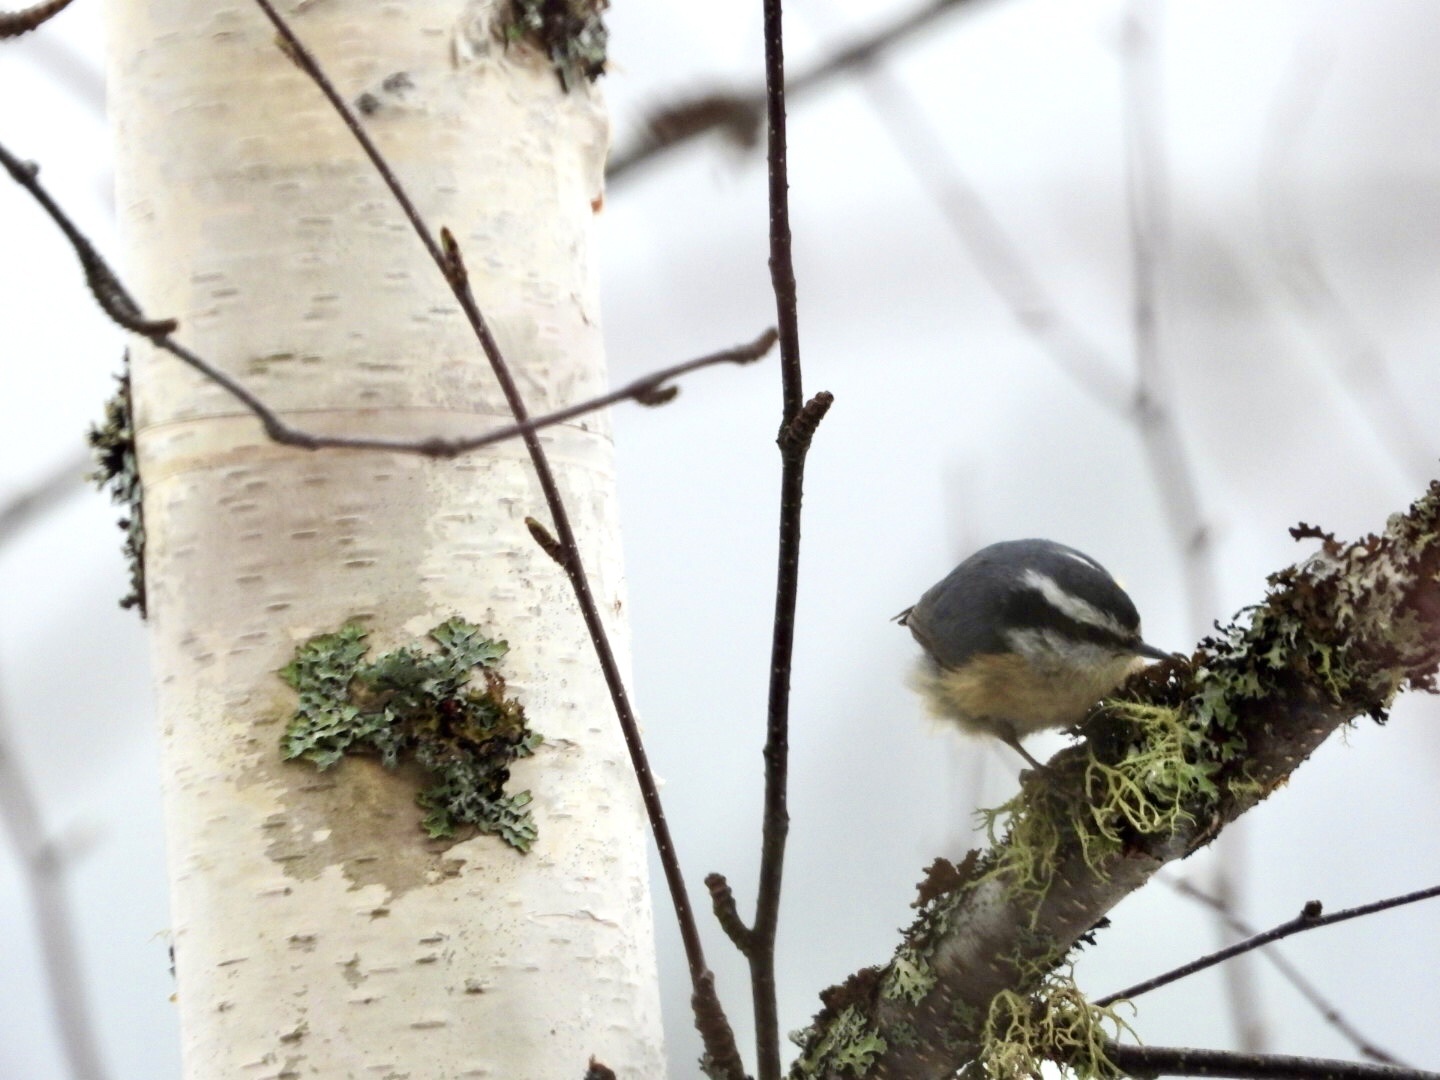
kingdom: Animalia
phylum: Chordata
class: Aves
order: Passeriformes
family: Sittidae
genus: Sitta
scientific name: Sitta canadensis
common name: Red-breasted nuthatch
